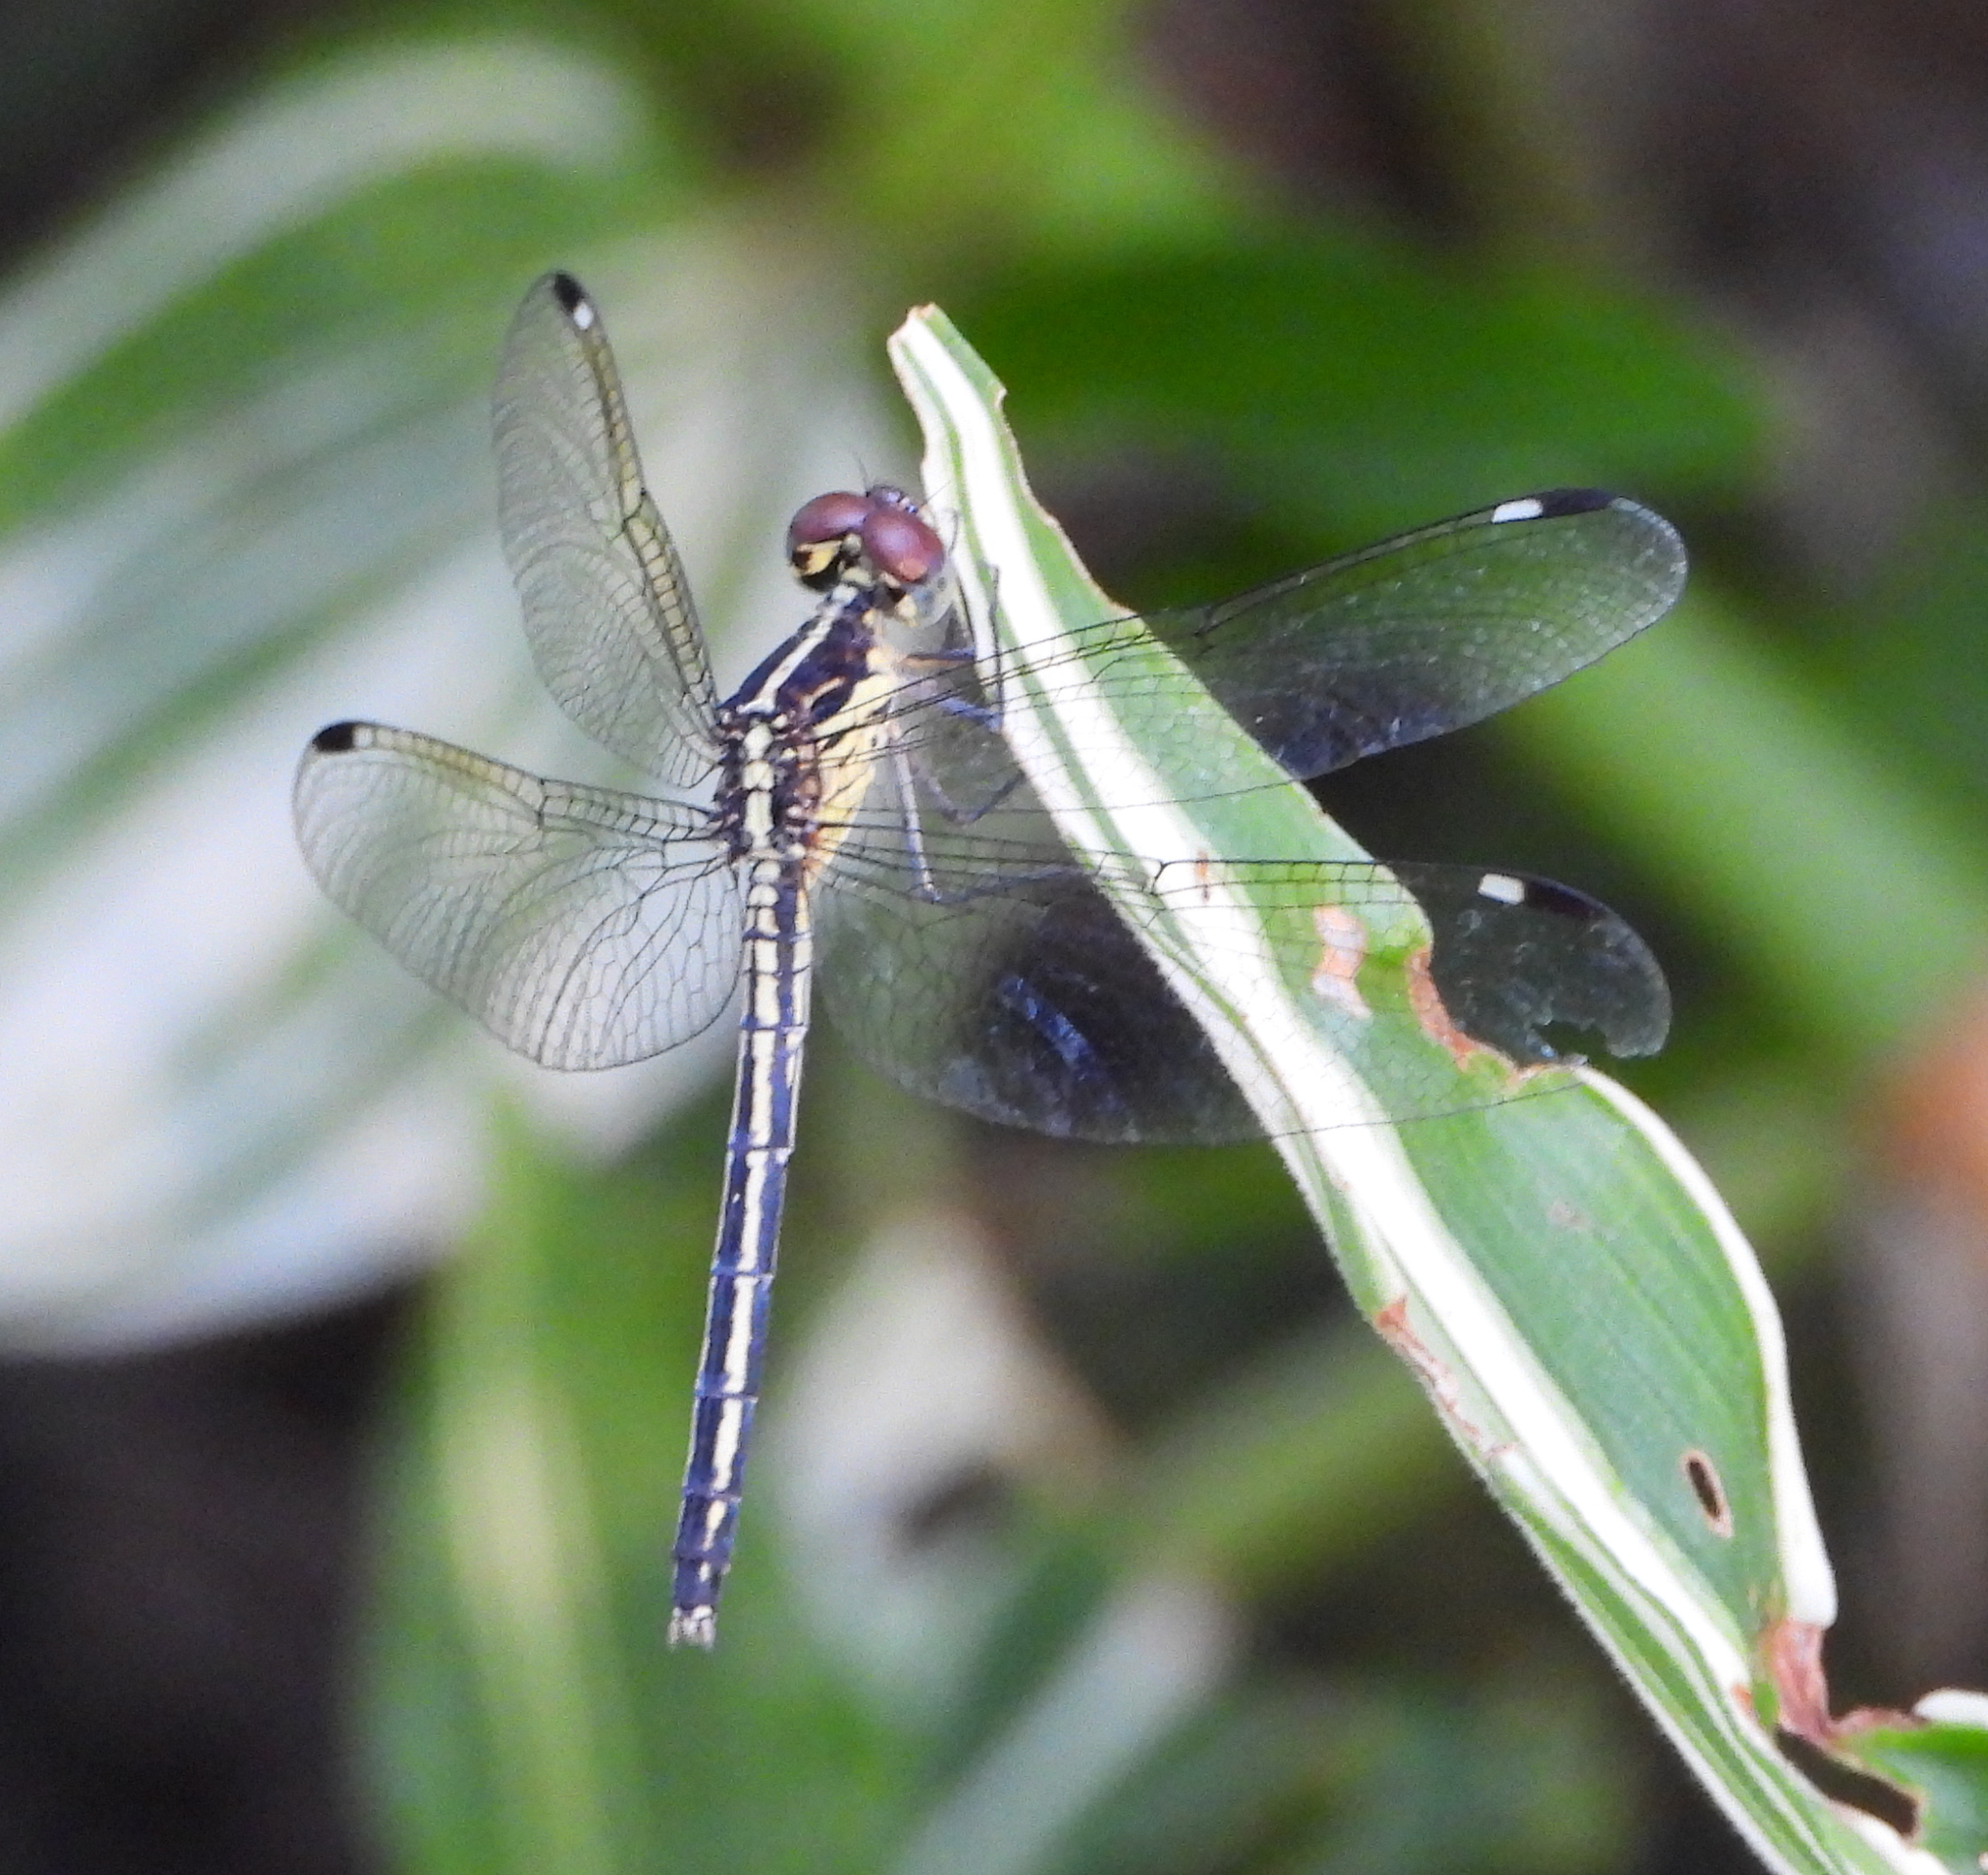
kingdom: Animalia
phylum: Arthropoda
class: Insecta
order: Odonata
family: Libellulidae
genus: Hemistigma
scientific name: Hemistigma albipunctum
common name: African pied-spot
